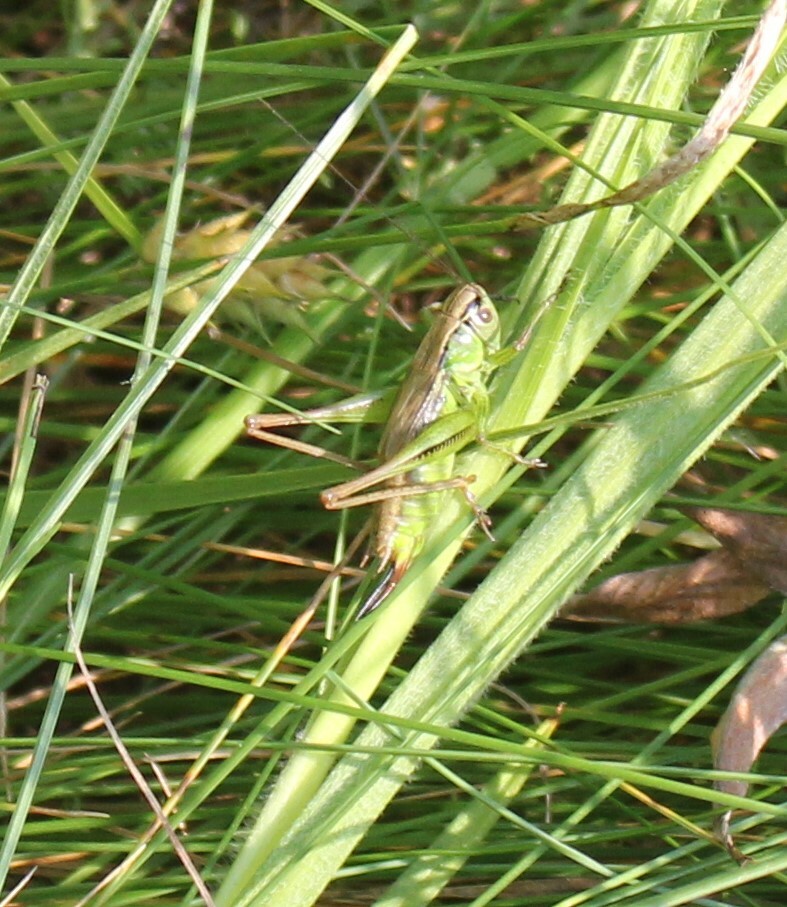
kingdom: Animalia
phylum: Arthropoda
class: Insecta
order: Orthoptera
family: Tettigoniidae
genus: Roeseliana
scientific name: Roeseliana roeselii
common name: Roesel's bush cricket
